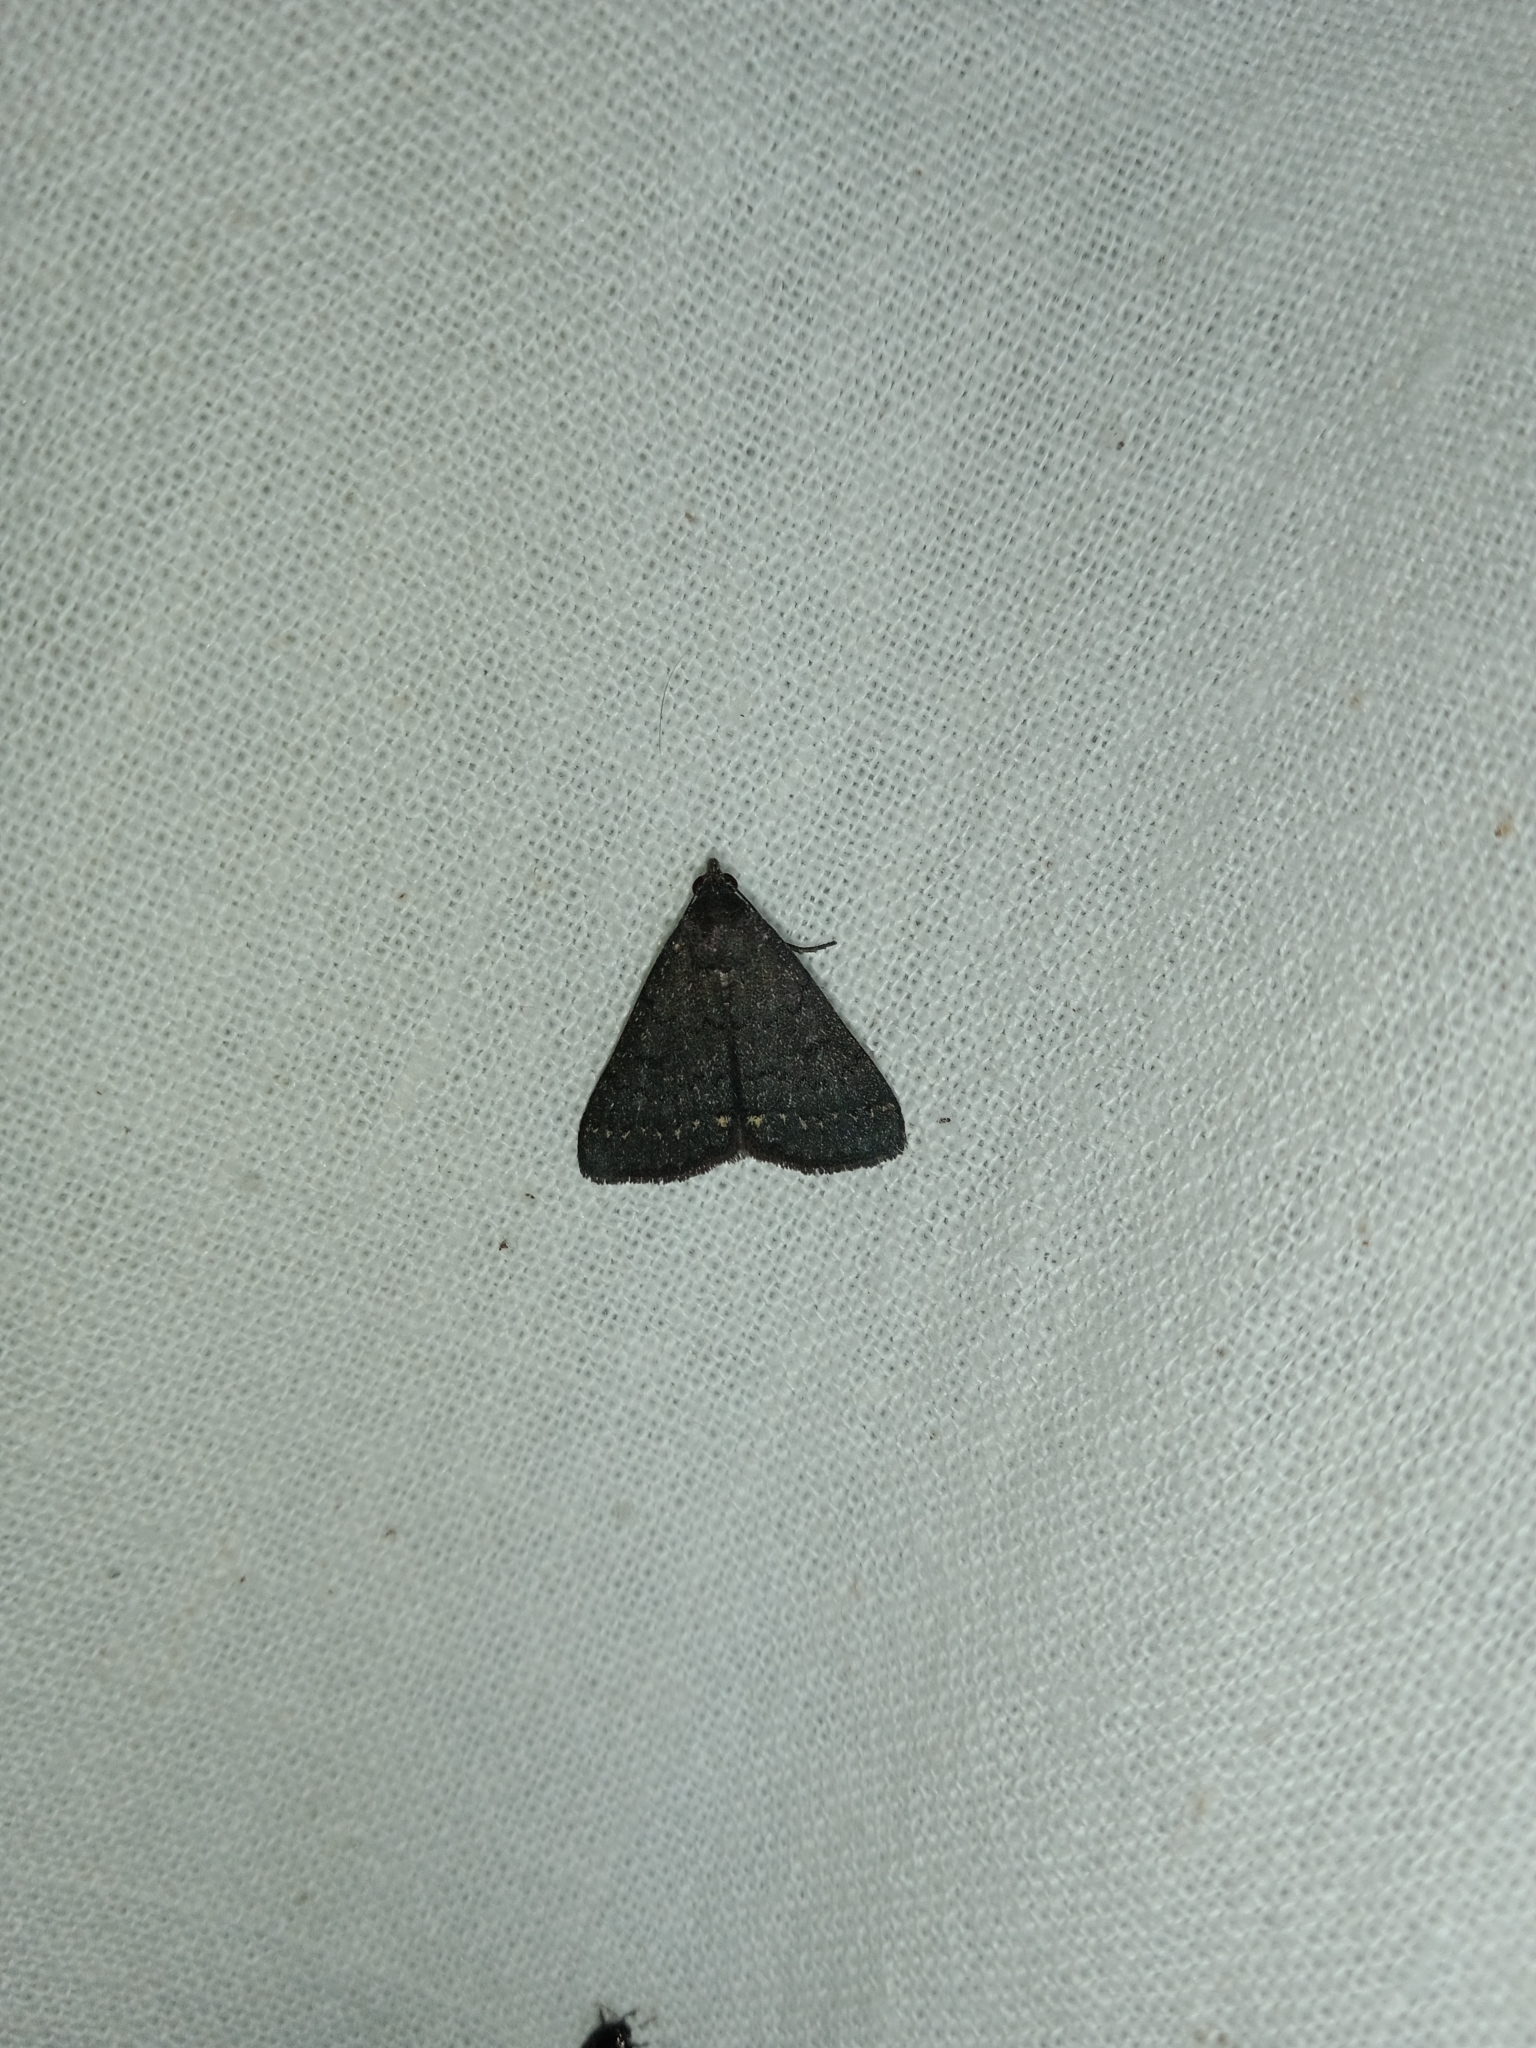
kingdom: Animalia
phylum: Arthropoda
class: Insecta
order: Lepidoptera
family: Erebidae
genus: Nodaria
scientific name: Nodaria externalis
